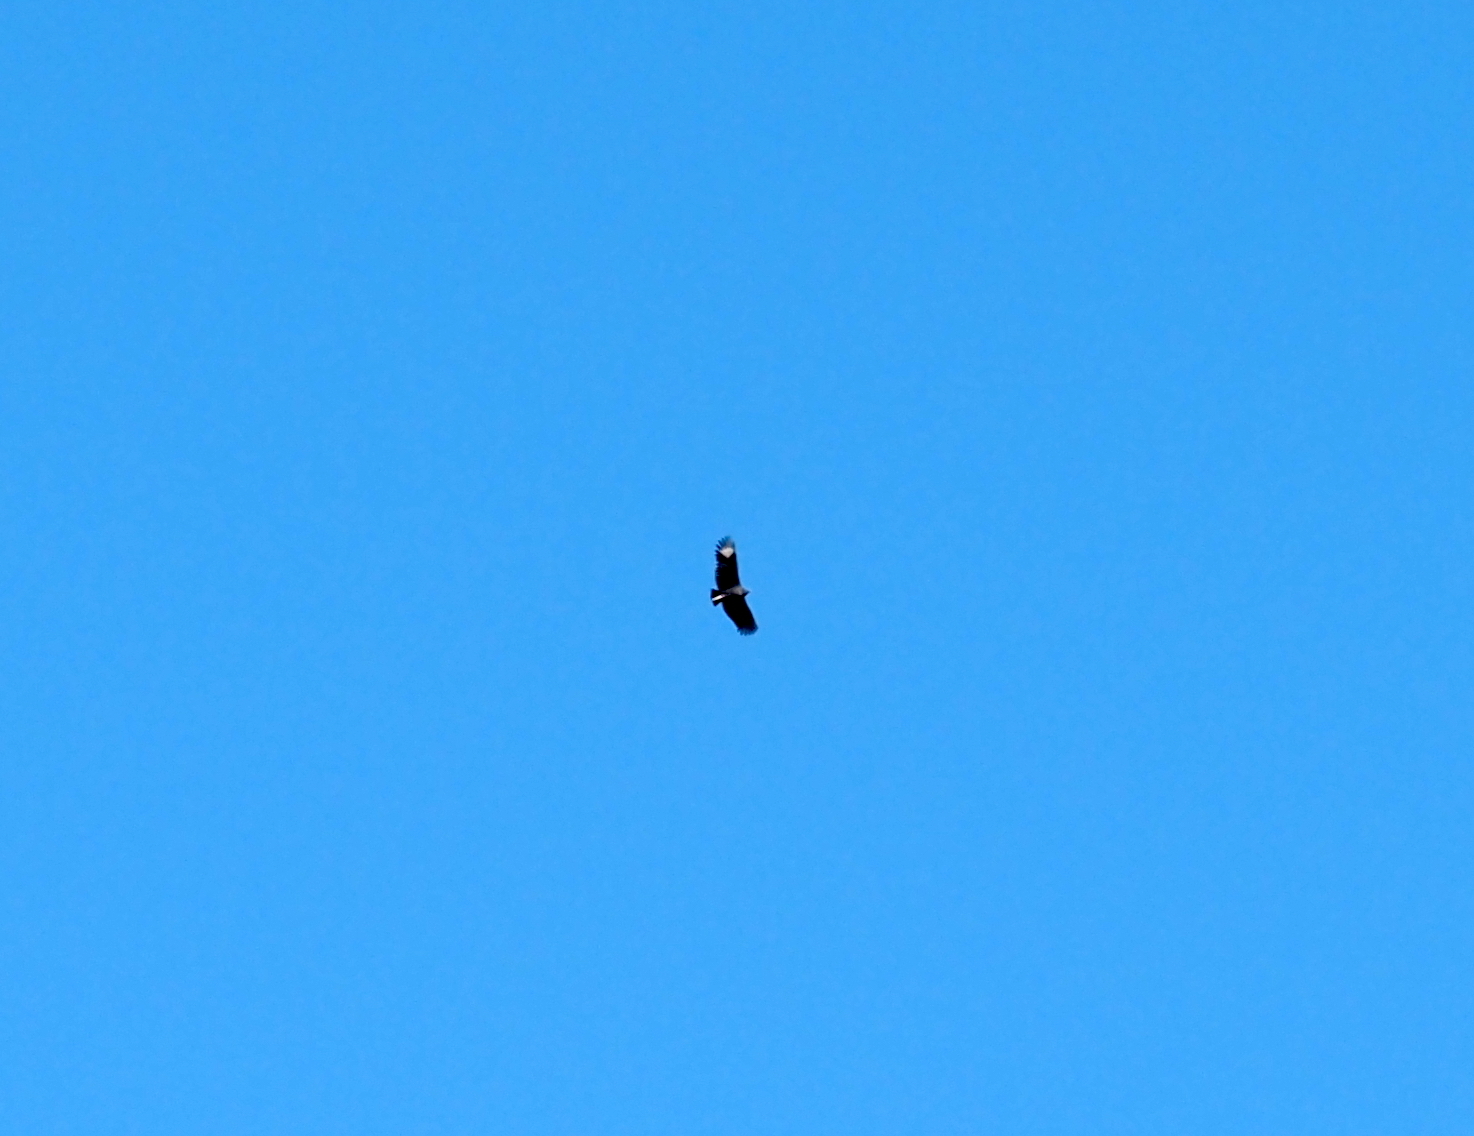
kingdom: Animalia
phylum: Chordata
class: Aves
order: Accipitriformes
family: Cathartidae
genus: Coragyps
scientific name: Coragyps atratus
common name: Black vulture
